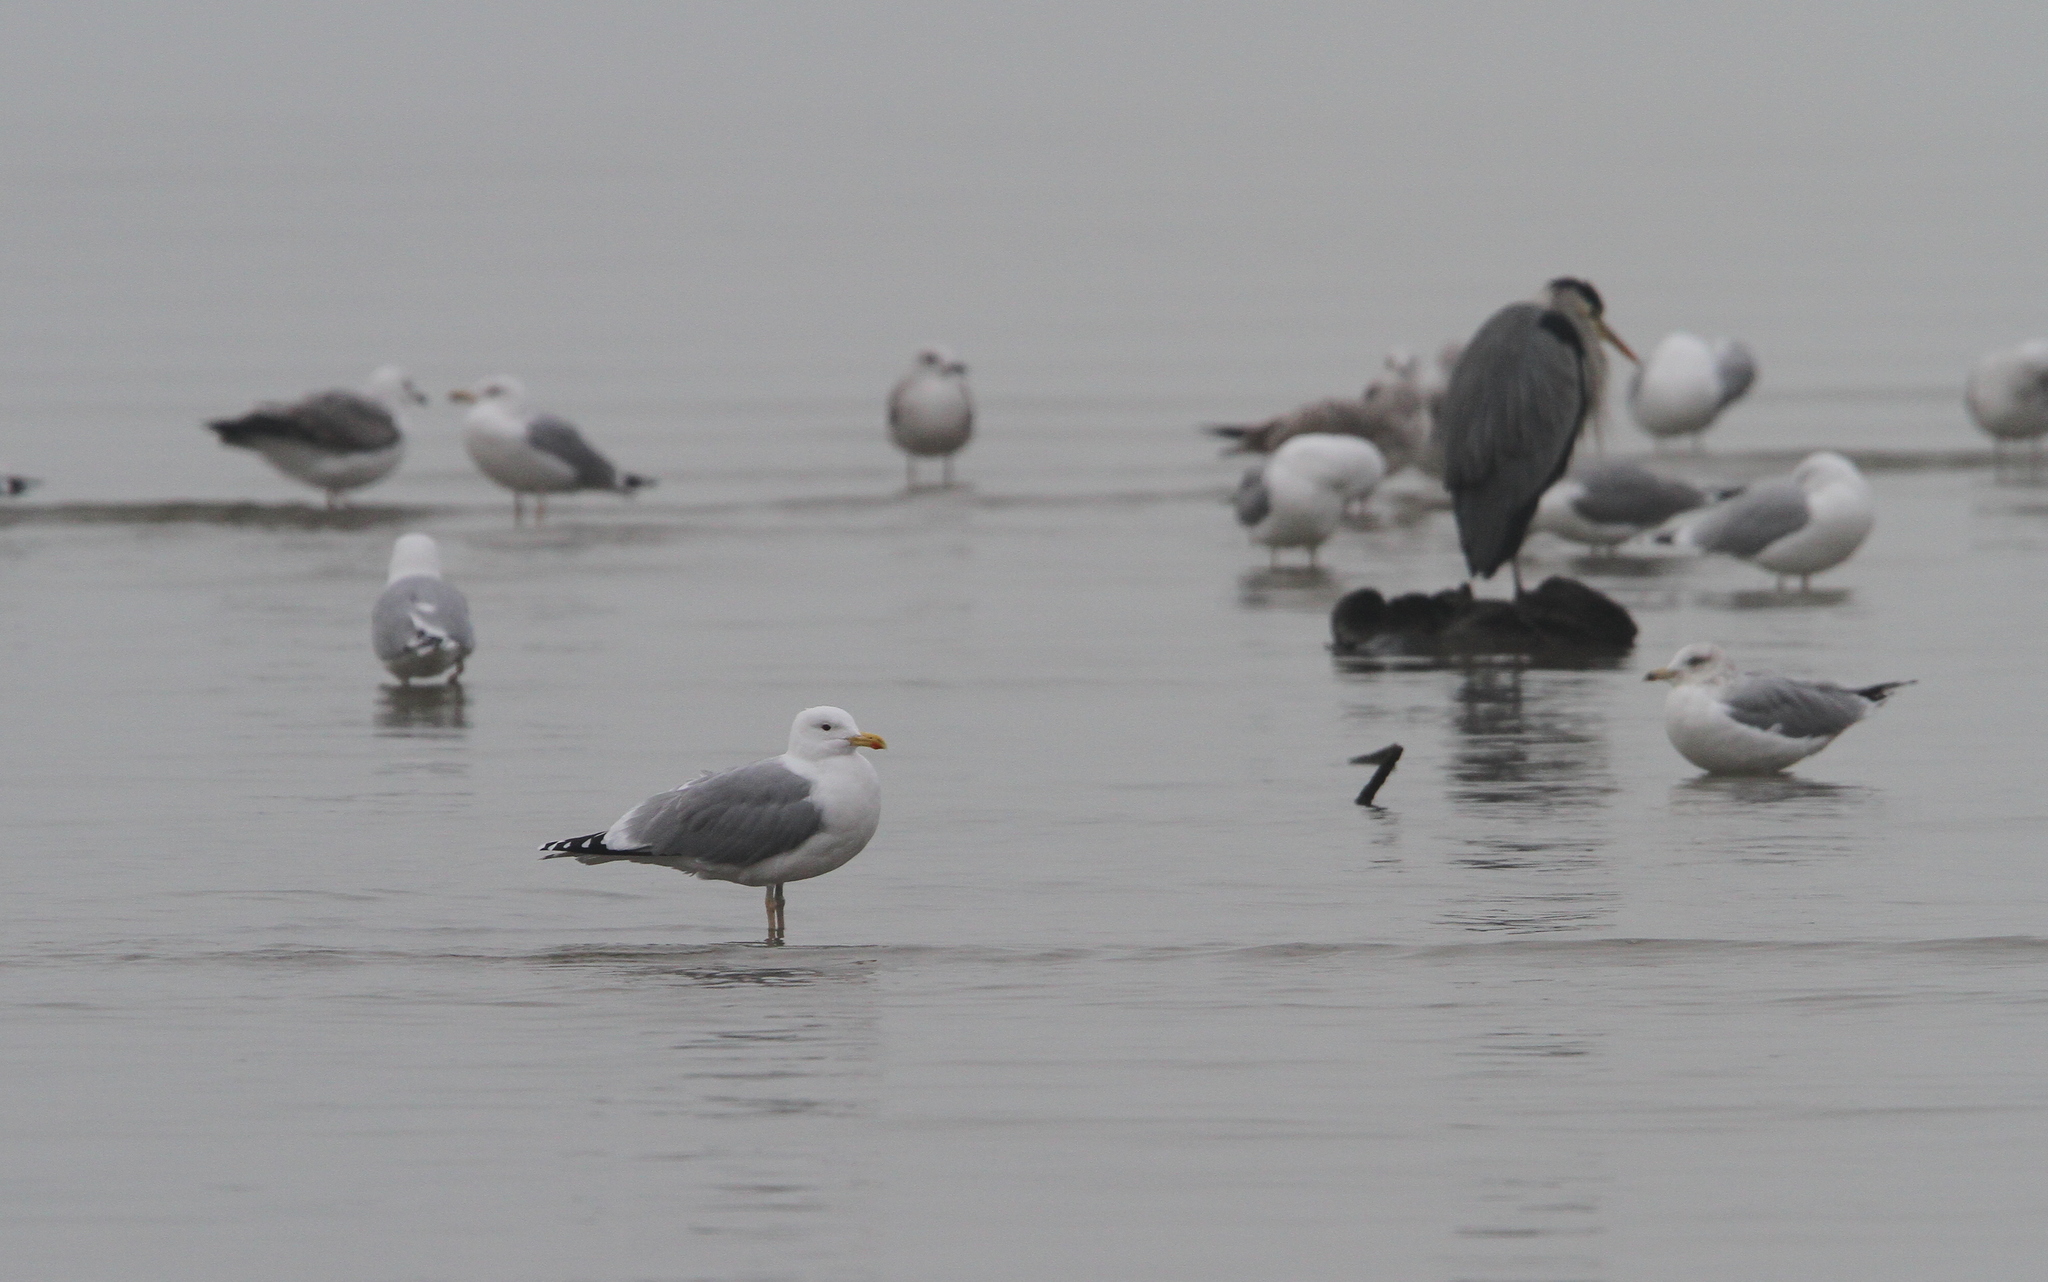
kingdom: Animalia
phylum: Chordata
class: Aves
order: Charadriiformes
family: Laridae
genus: Larus
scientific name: Larus cachinnans
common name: Caspian gull
